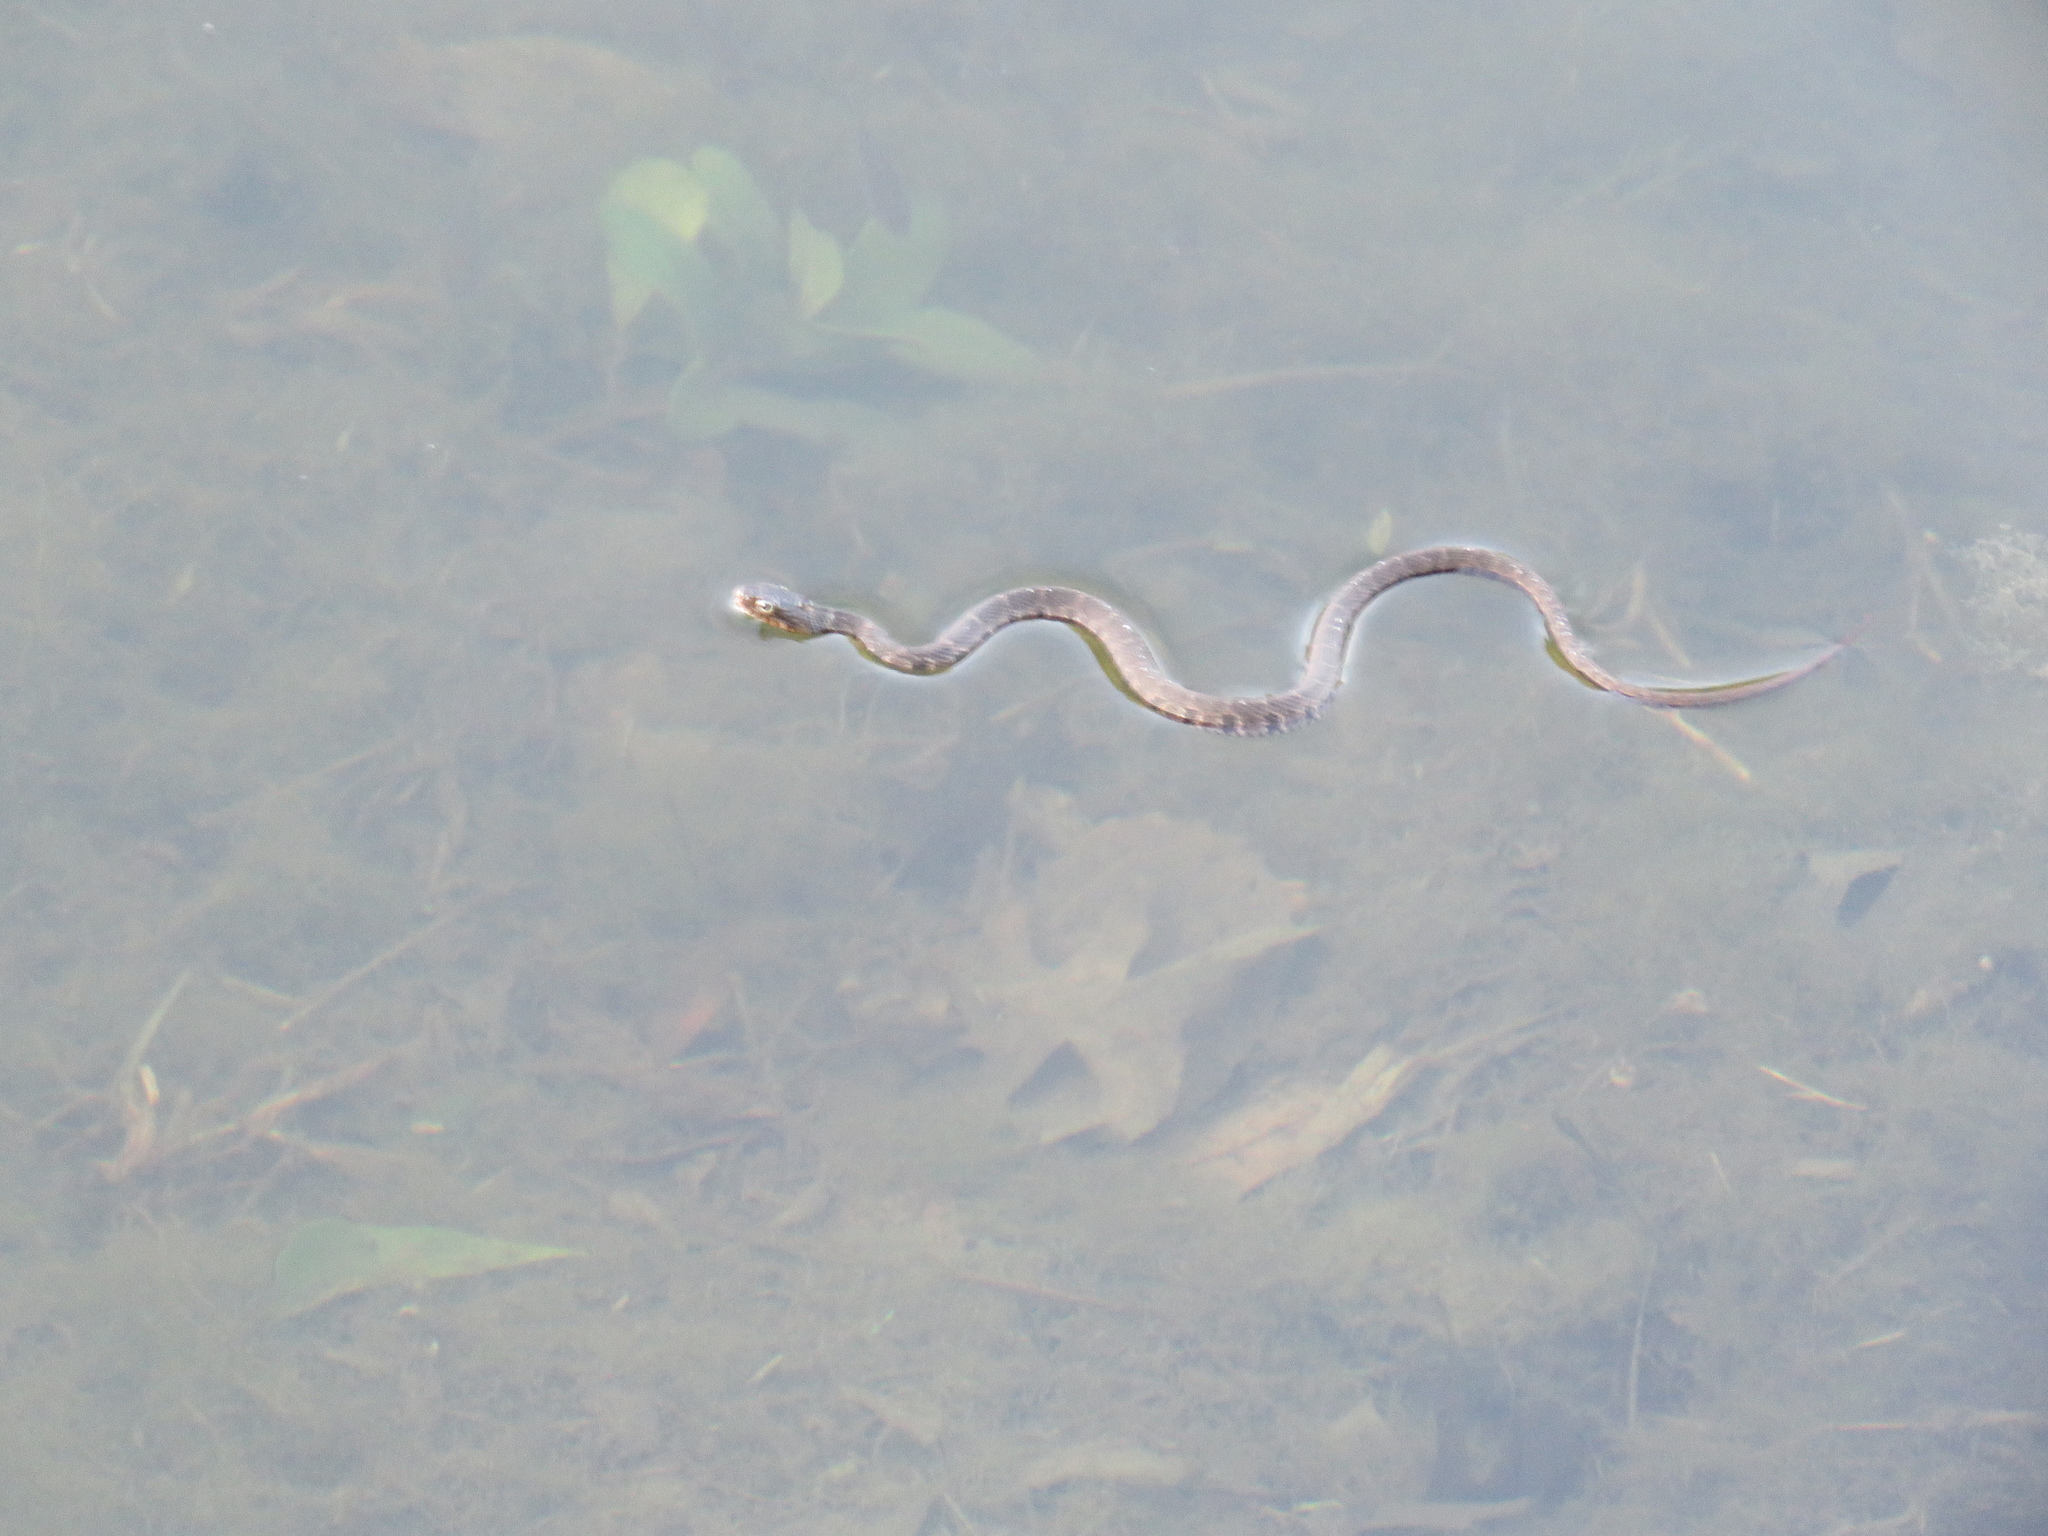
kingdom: Animalia
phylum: Chordata
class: Squamata
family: Colubridae
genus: Nerodia
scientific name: Nerodia erythrogaster
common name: Plainbelly water snake
